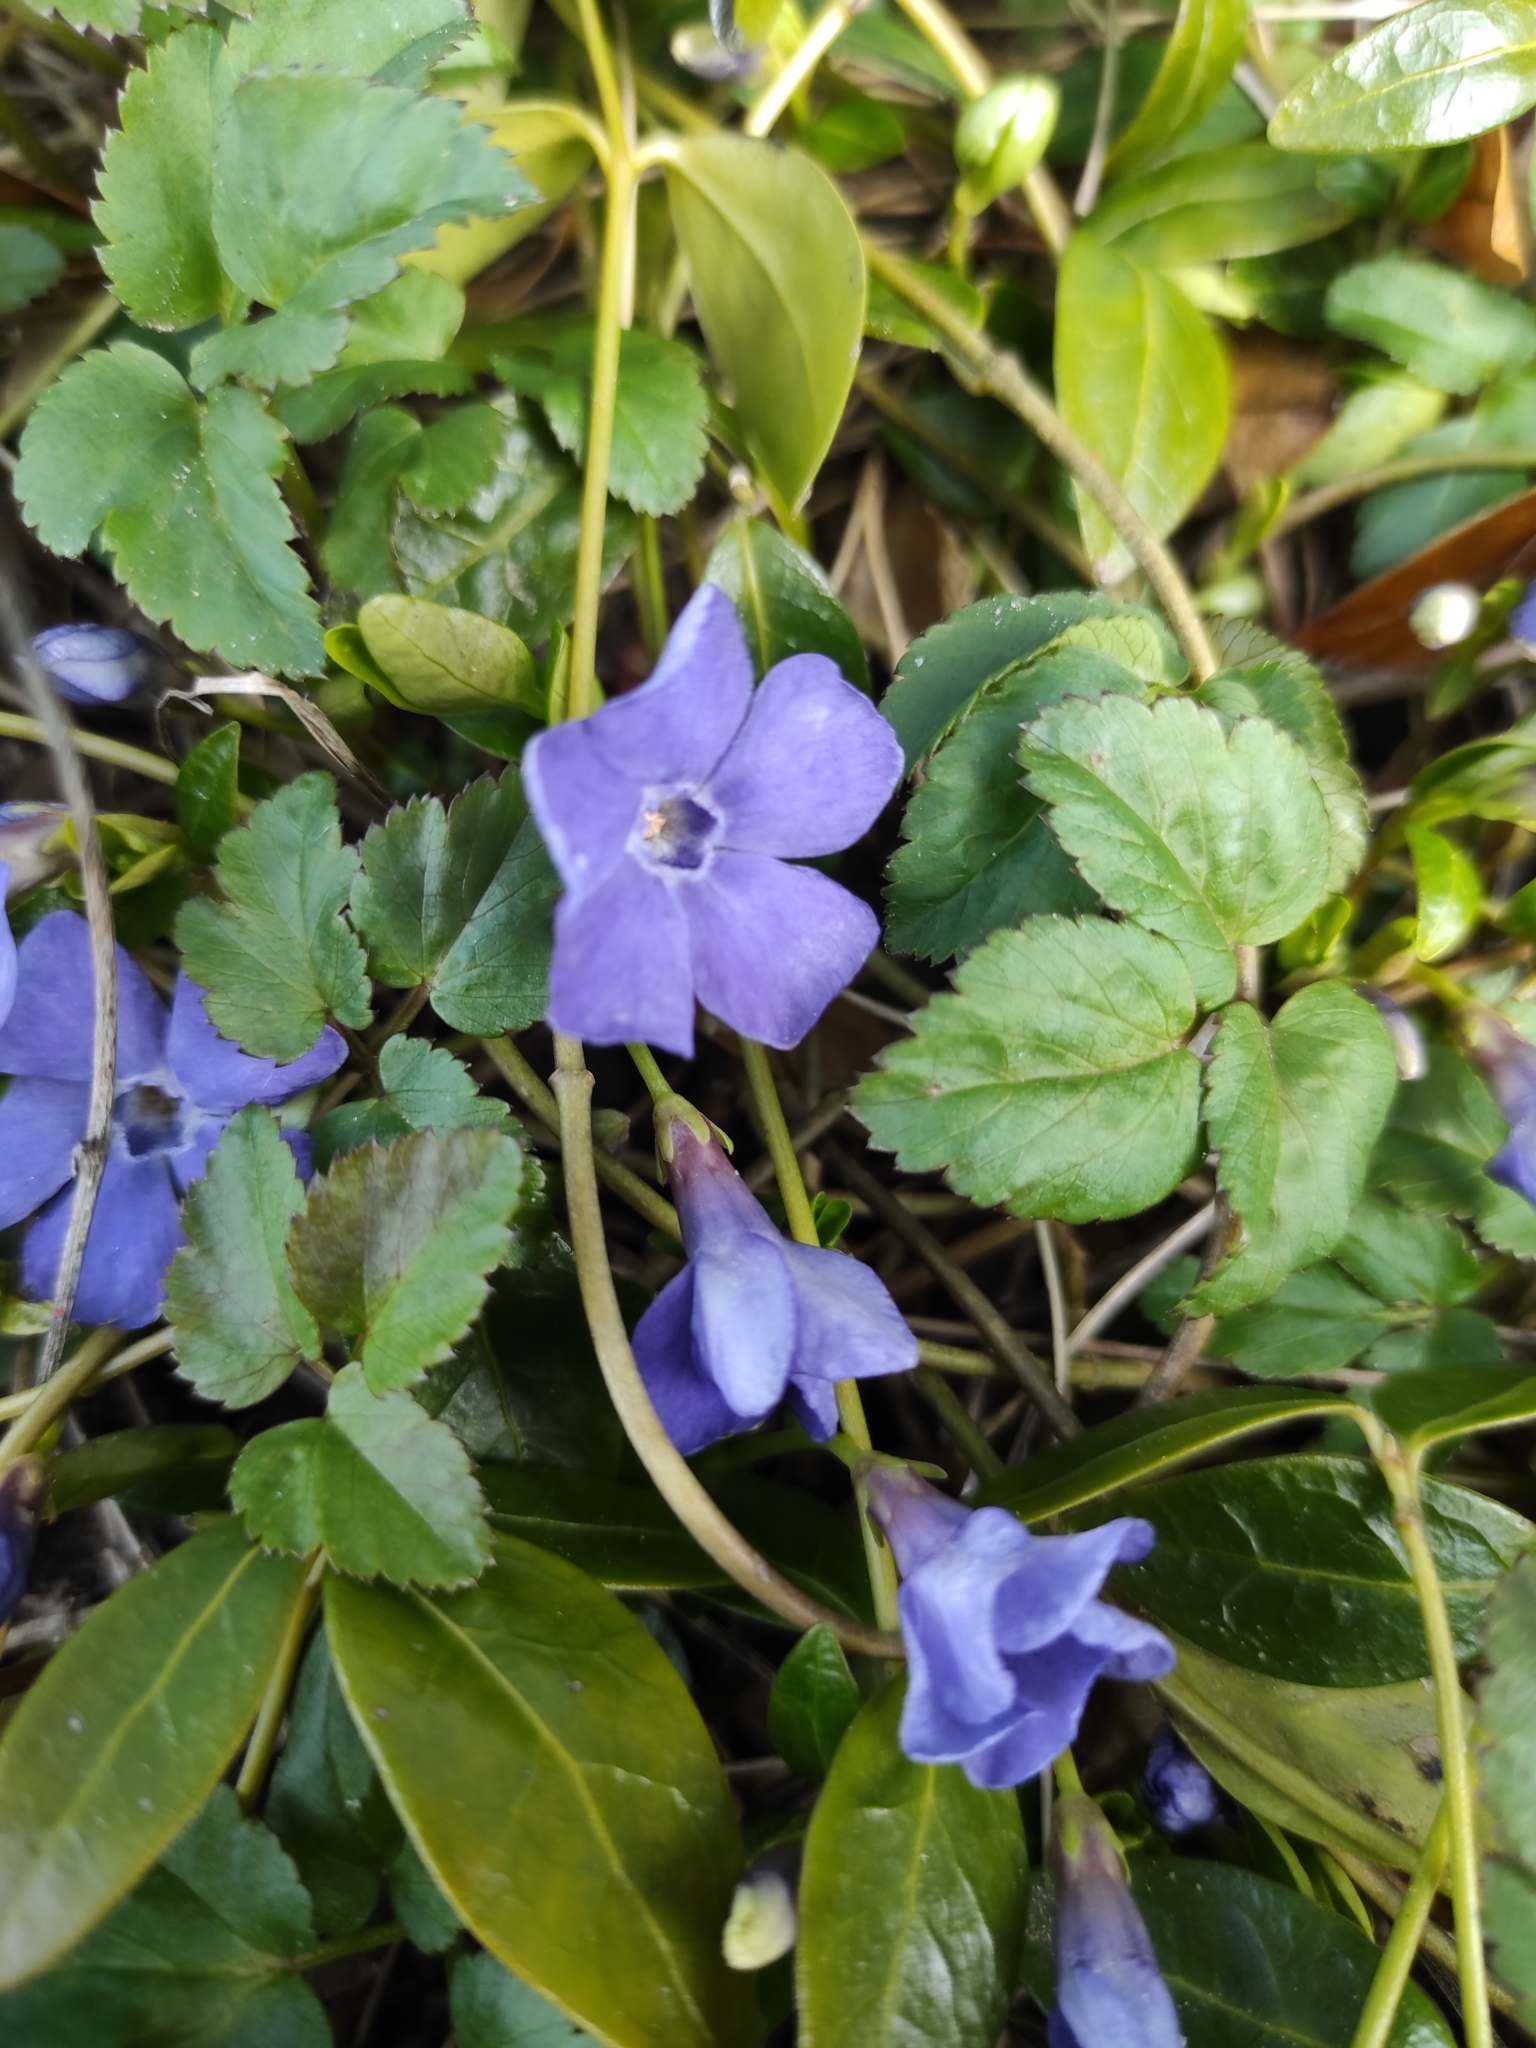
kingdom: Plantae
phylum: Tracheophyta
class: Magnoliopsida
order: Gentianales
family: Apocynaceae
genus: Vinca
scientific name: Vinca minor
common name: Lesser periwinkle
